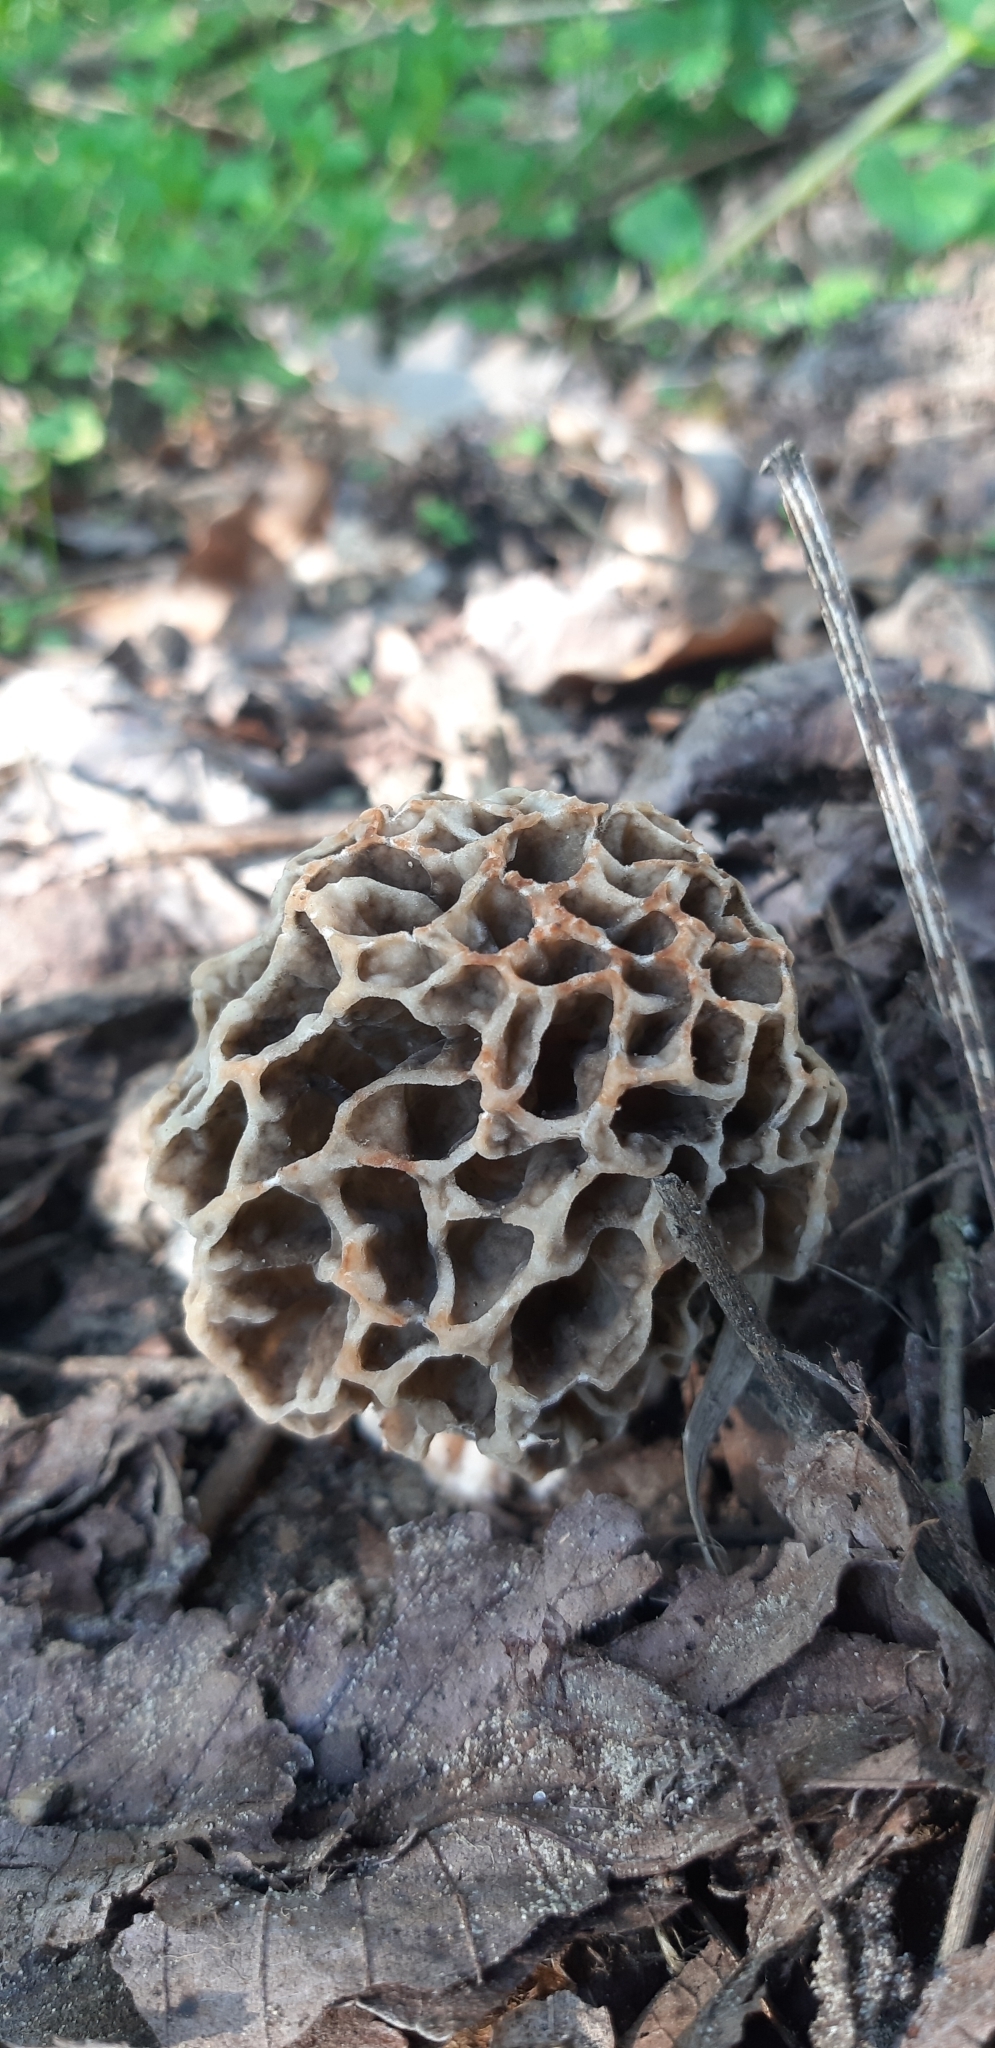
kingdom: Fungi
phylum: Ascomycota
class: Pezizomycetes
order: Pezizales
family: Morchellaceae
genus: Morchella
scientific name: Morchella esculenta
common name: Morel
